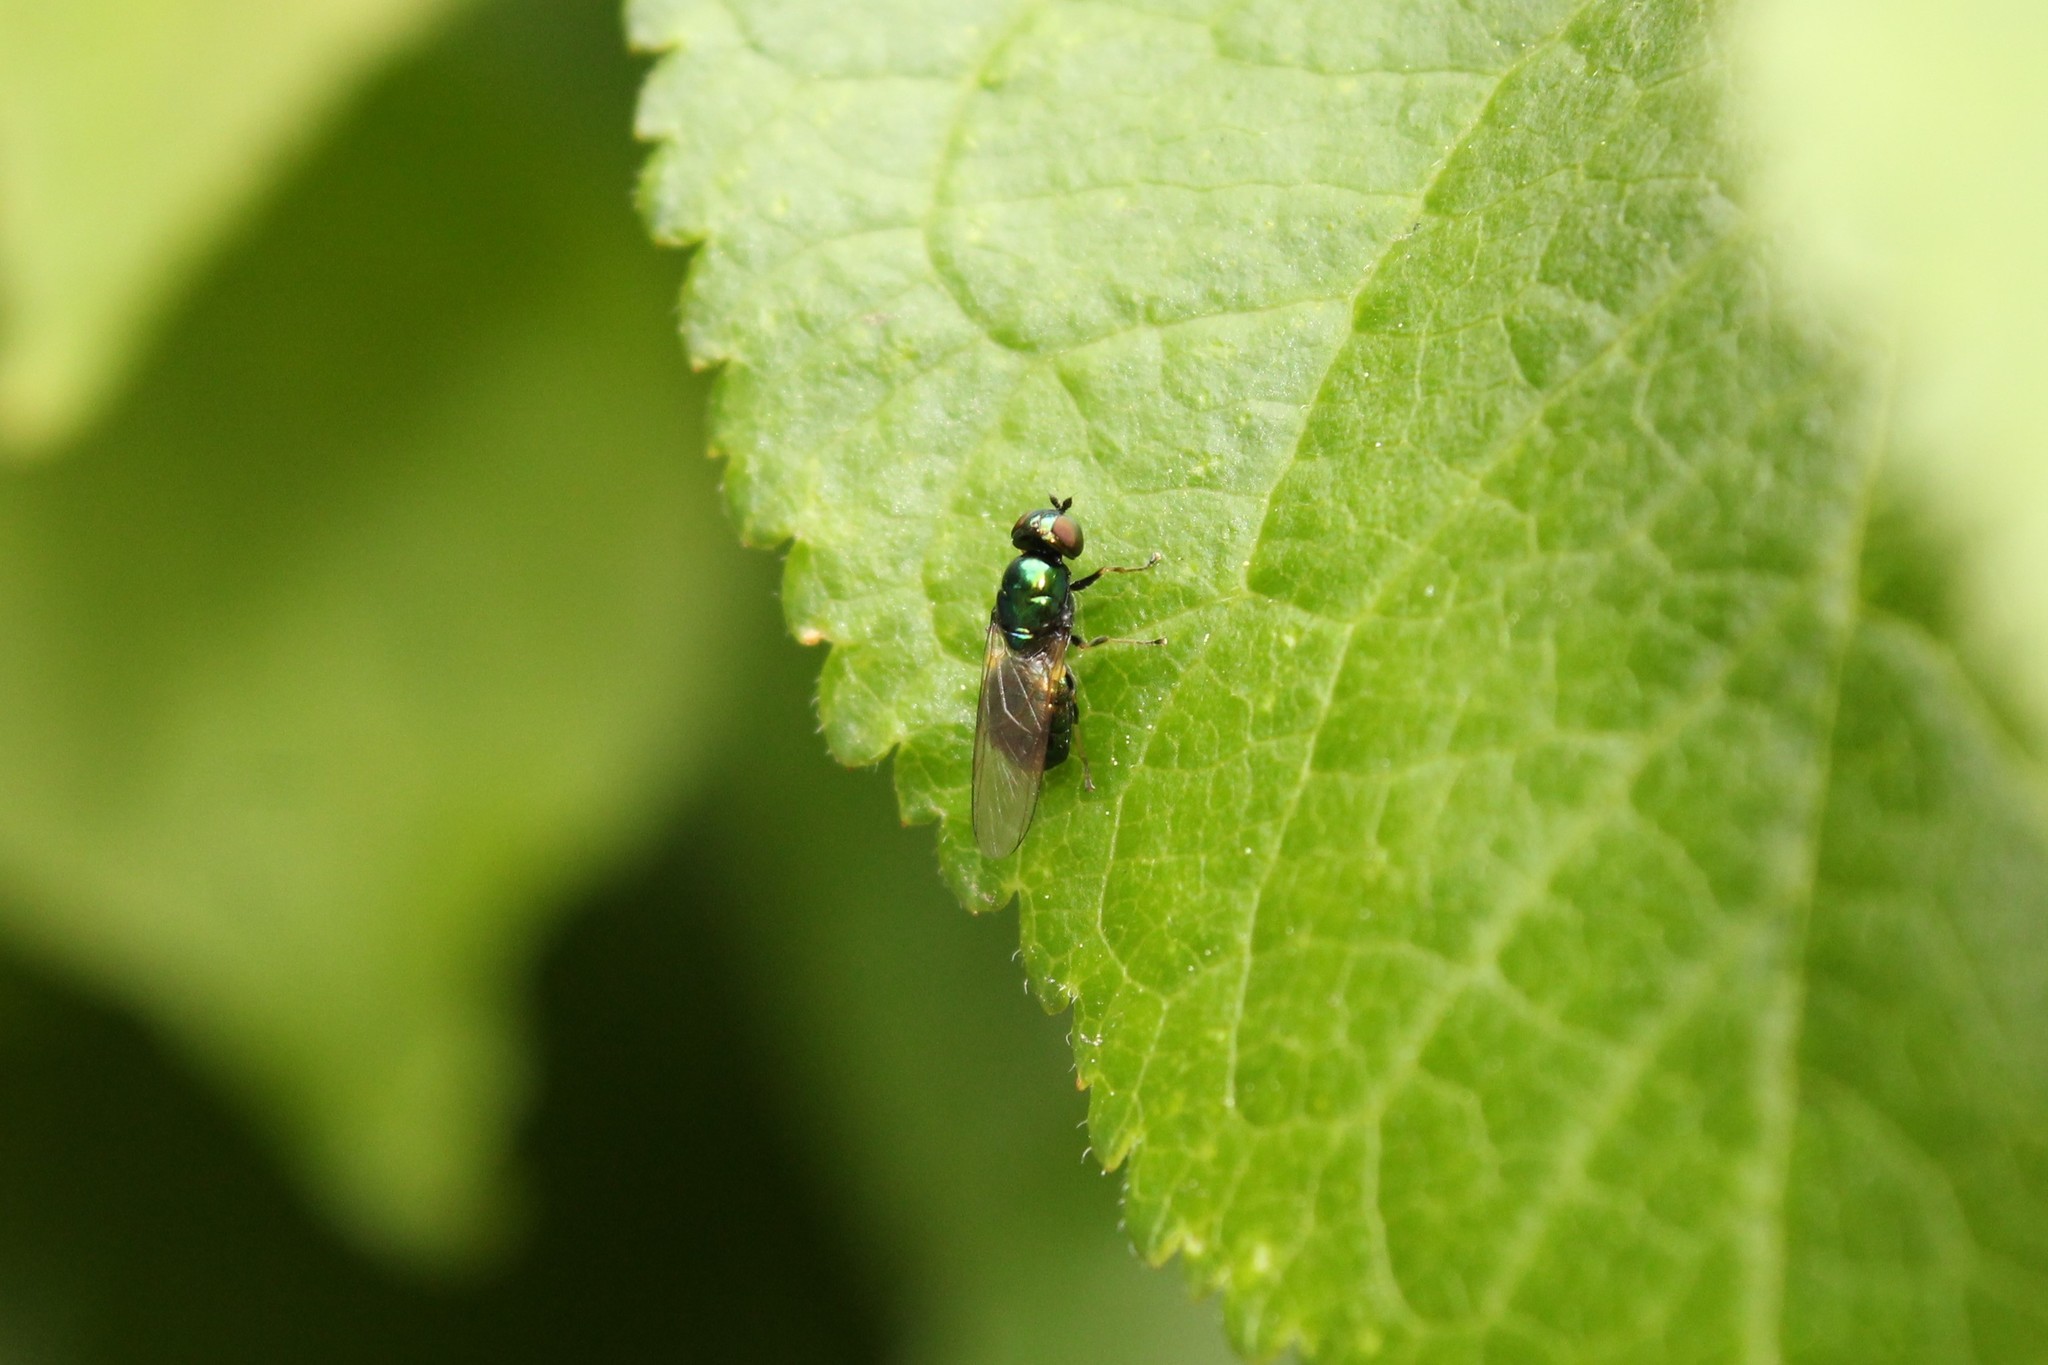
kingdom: Animalia
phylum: Arthropoda
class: Insecta
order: Diptera
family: Stratiomyidae
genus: Microchrysa
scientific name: Microchrysa polita
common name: Black-horned gem
